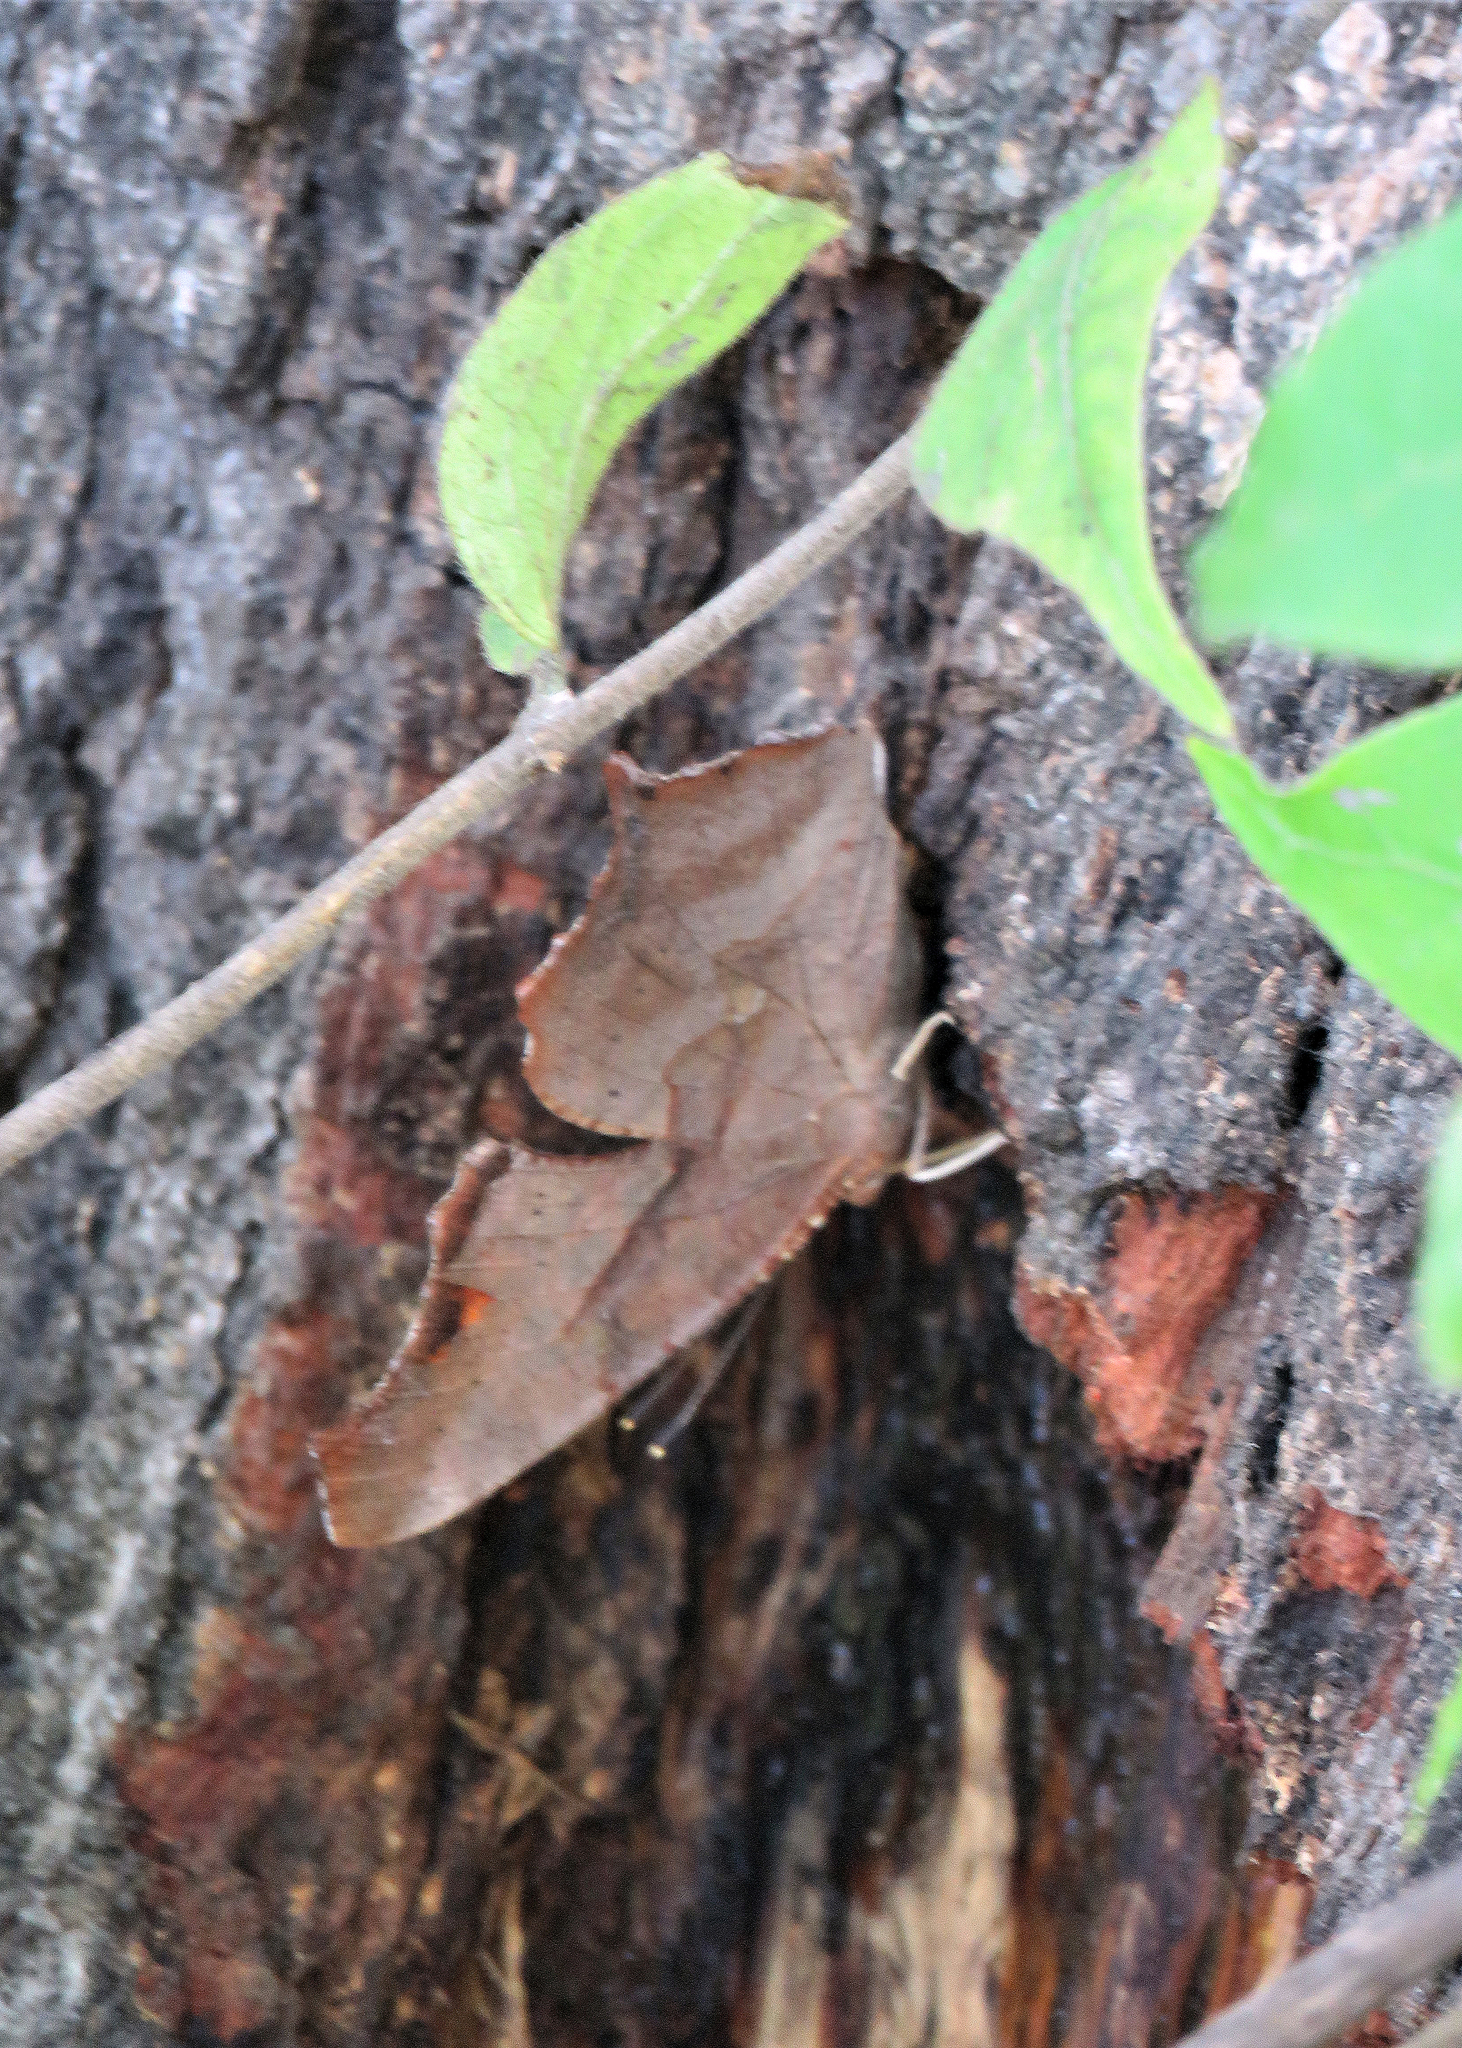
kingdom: Animalia
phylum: Arthropoda
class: Insecta
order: Lepidoptera
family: Nymphalidae
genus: Polygonia
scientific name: Polygonia comma
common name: Eastern comma
